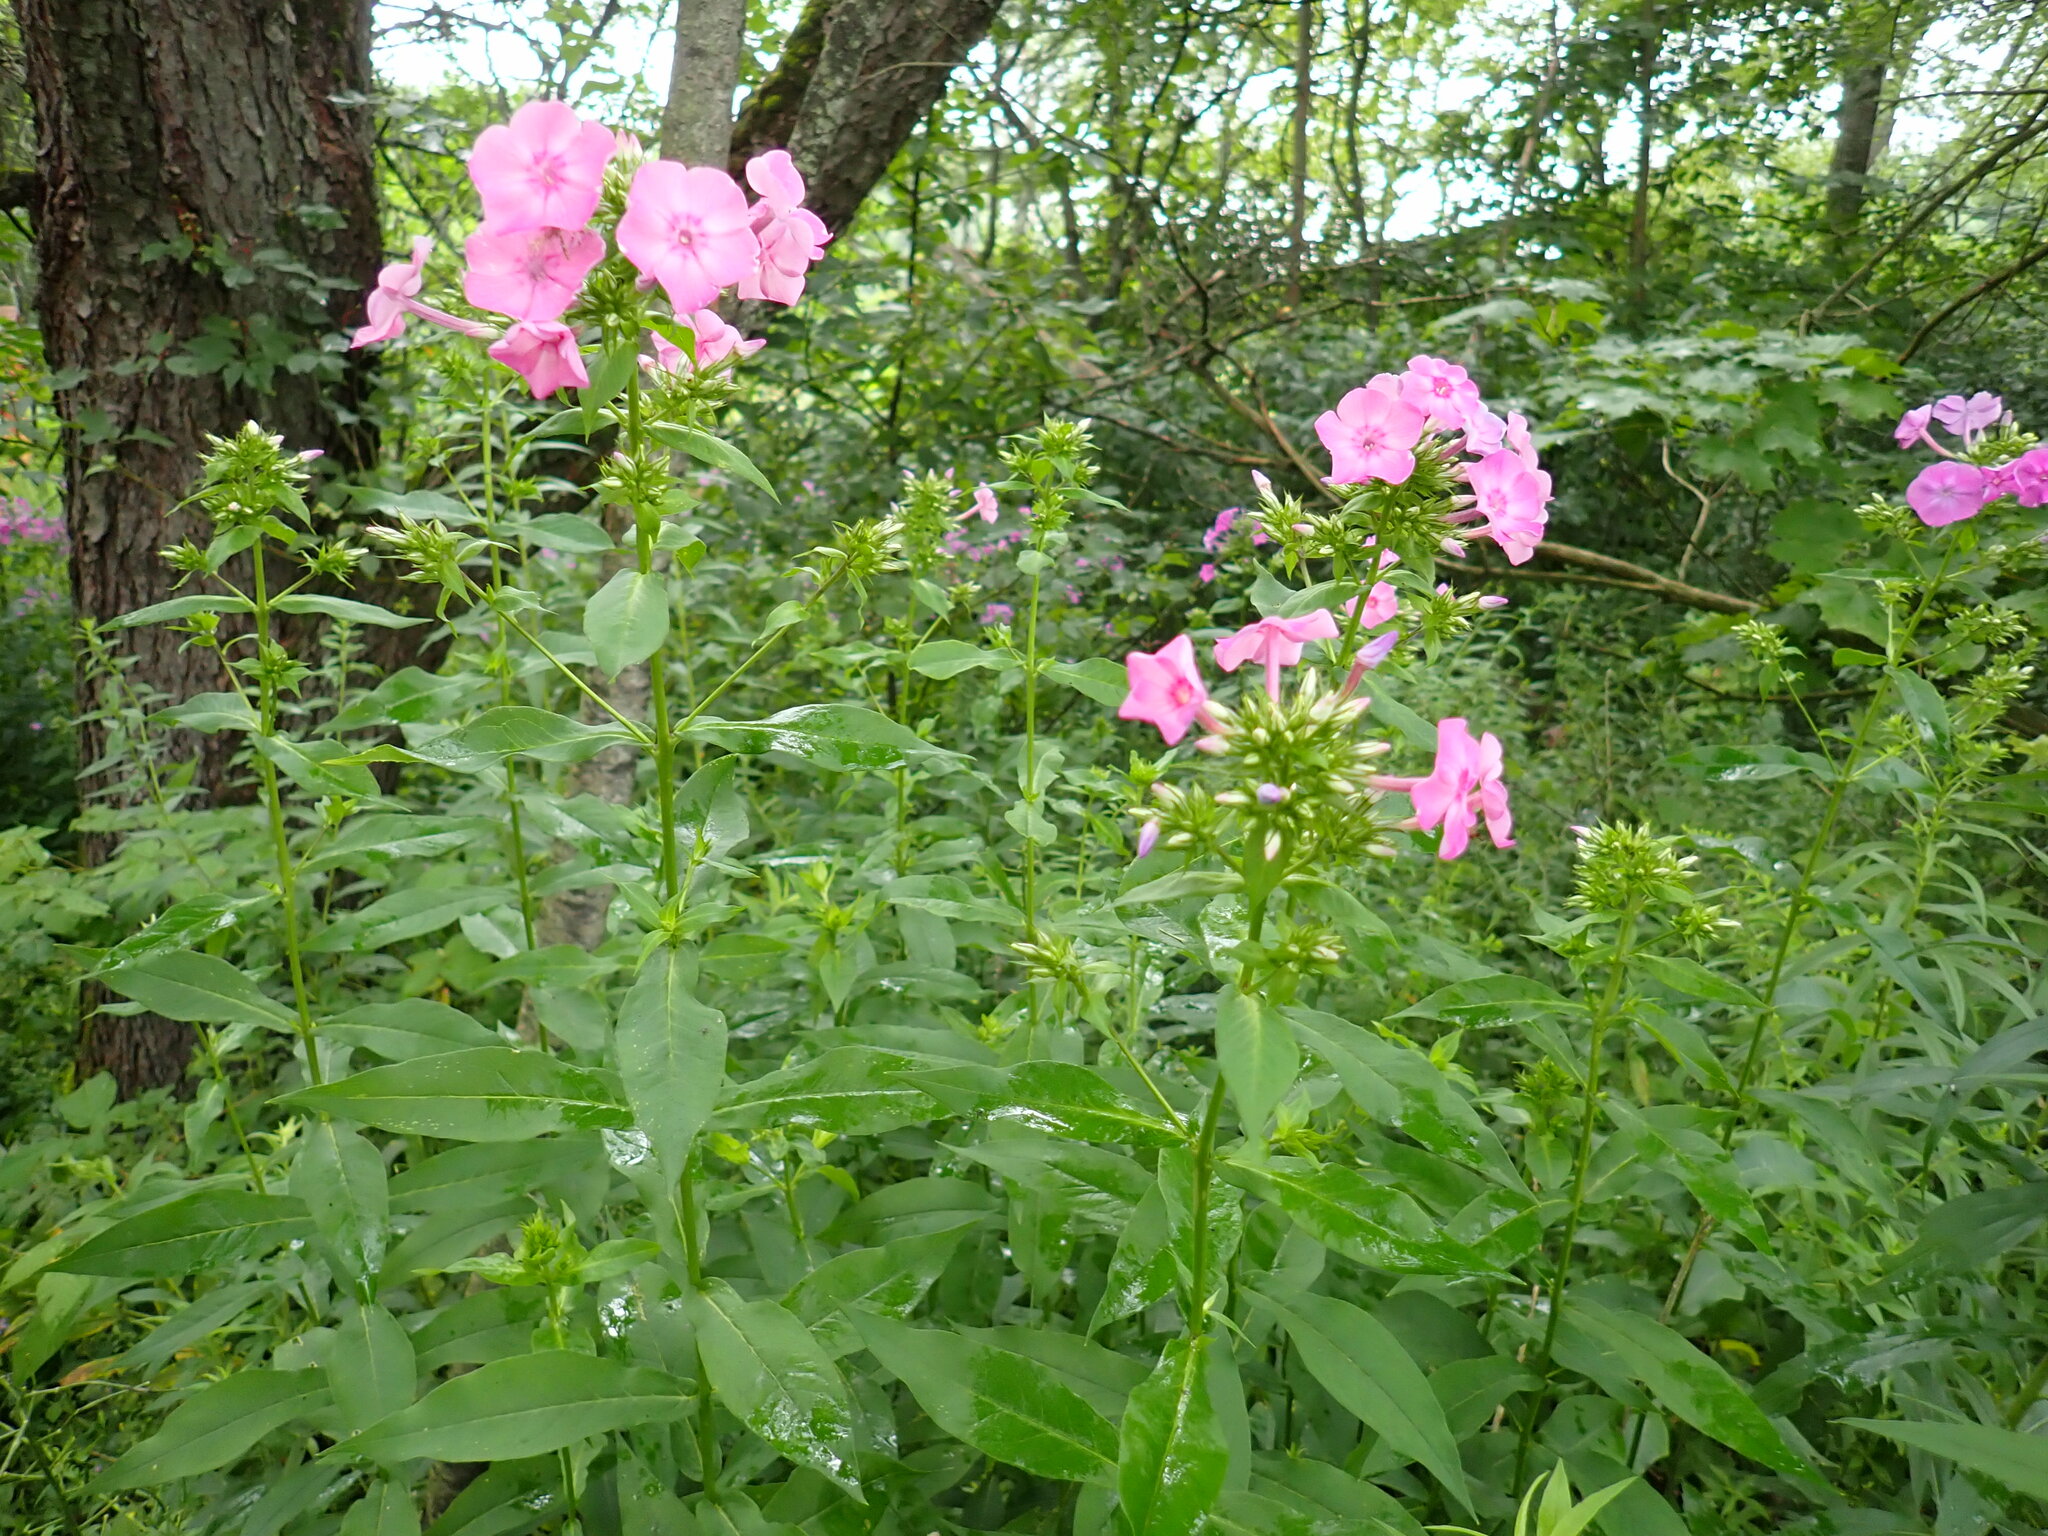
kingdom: Plantae
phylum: Tracheophyta
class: Magnoliopsida
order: Ericales
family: Polemoniaceae
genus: Phlox
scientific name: Phlox paniculata
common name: Fall phlox
